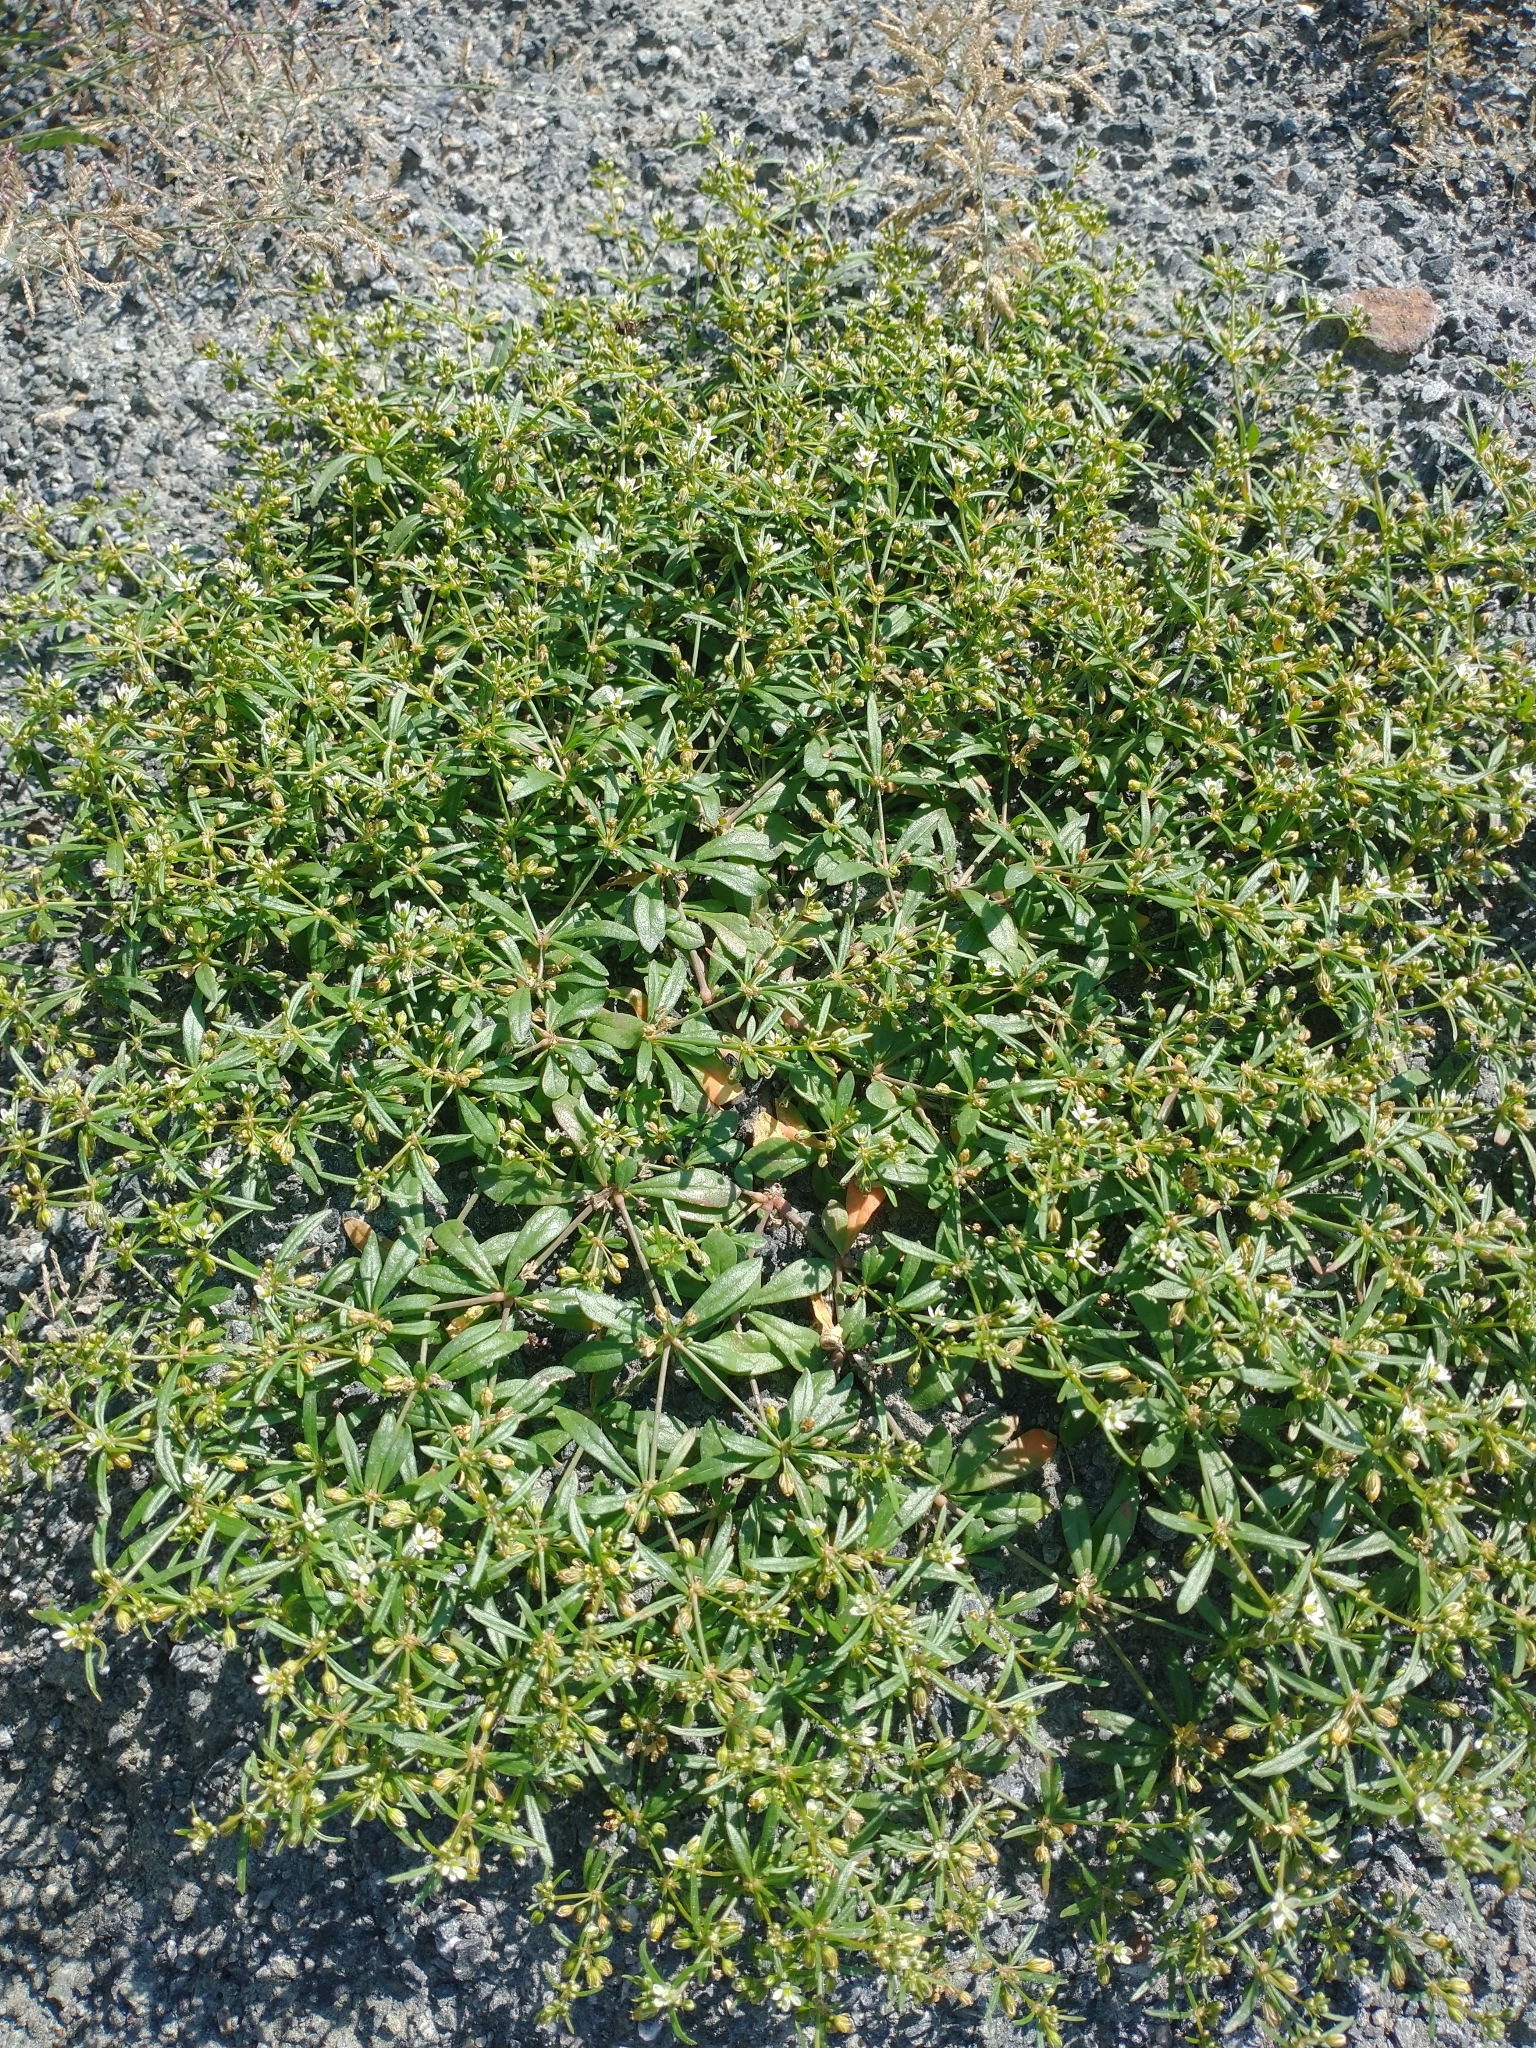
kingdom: Plantae
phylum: Tracheophyta
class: Magnoliopsida
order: Caryophyllales
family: Molluginaceae
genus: Mollugo
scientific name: Mollugo verticillata
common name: Green carpetweed
